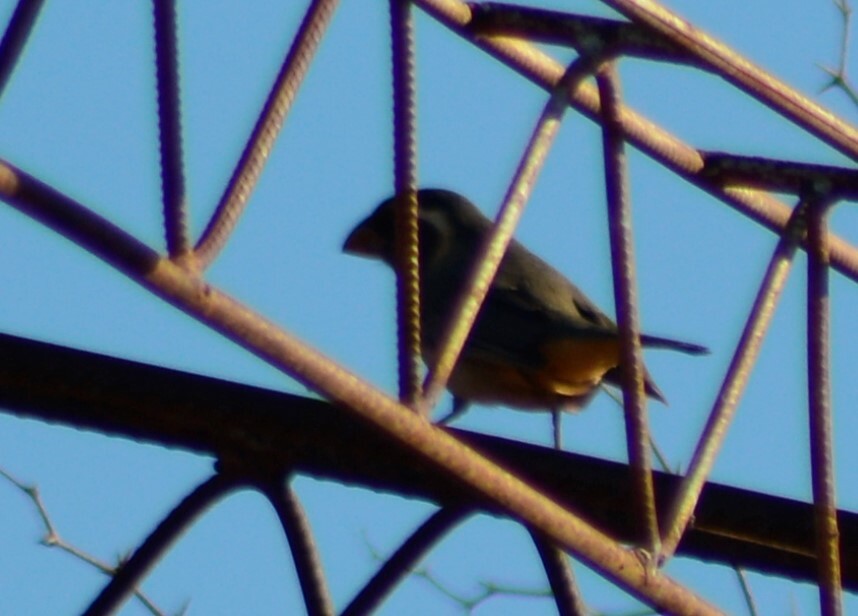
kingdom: Animalia
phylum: Chordata
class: Aves
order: Passeriformes
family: Thraupidae
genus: Saltator
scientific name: Saltator aurantiirostris
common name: Golden-billed saltator
